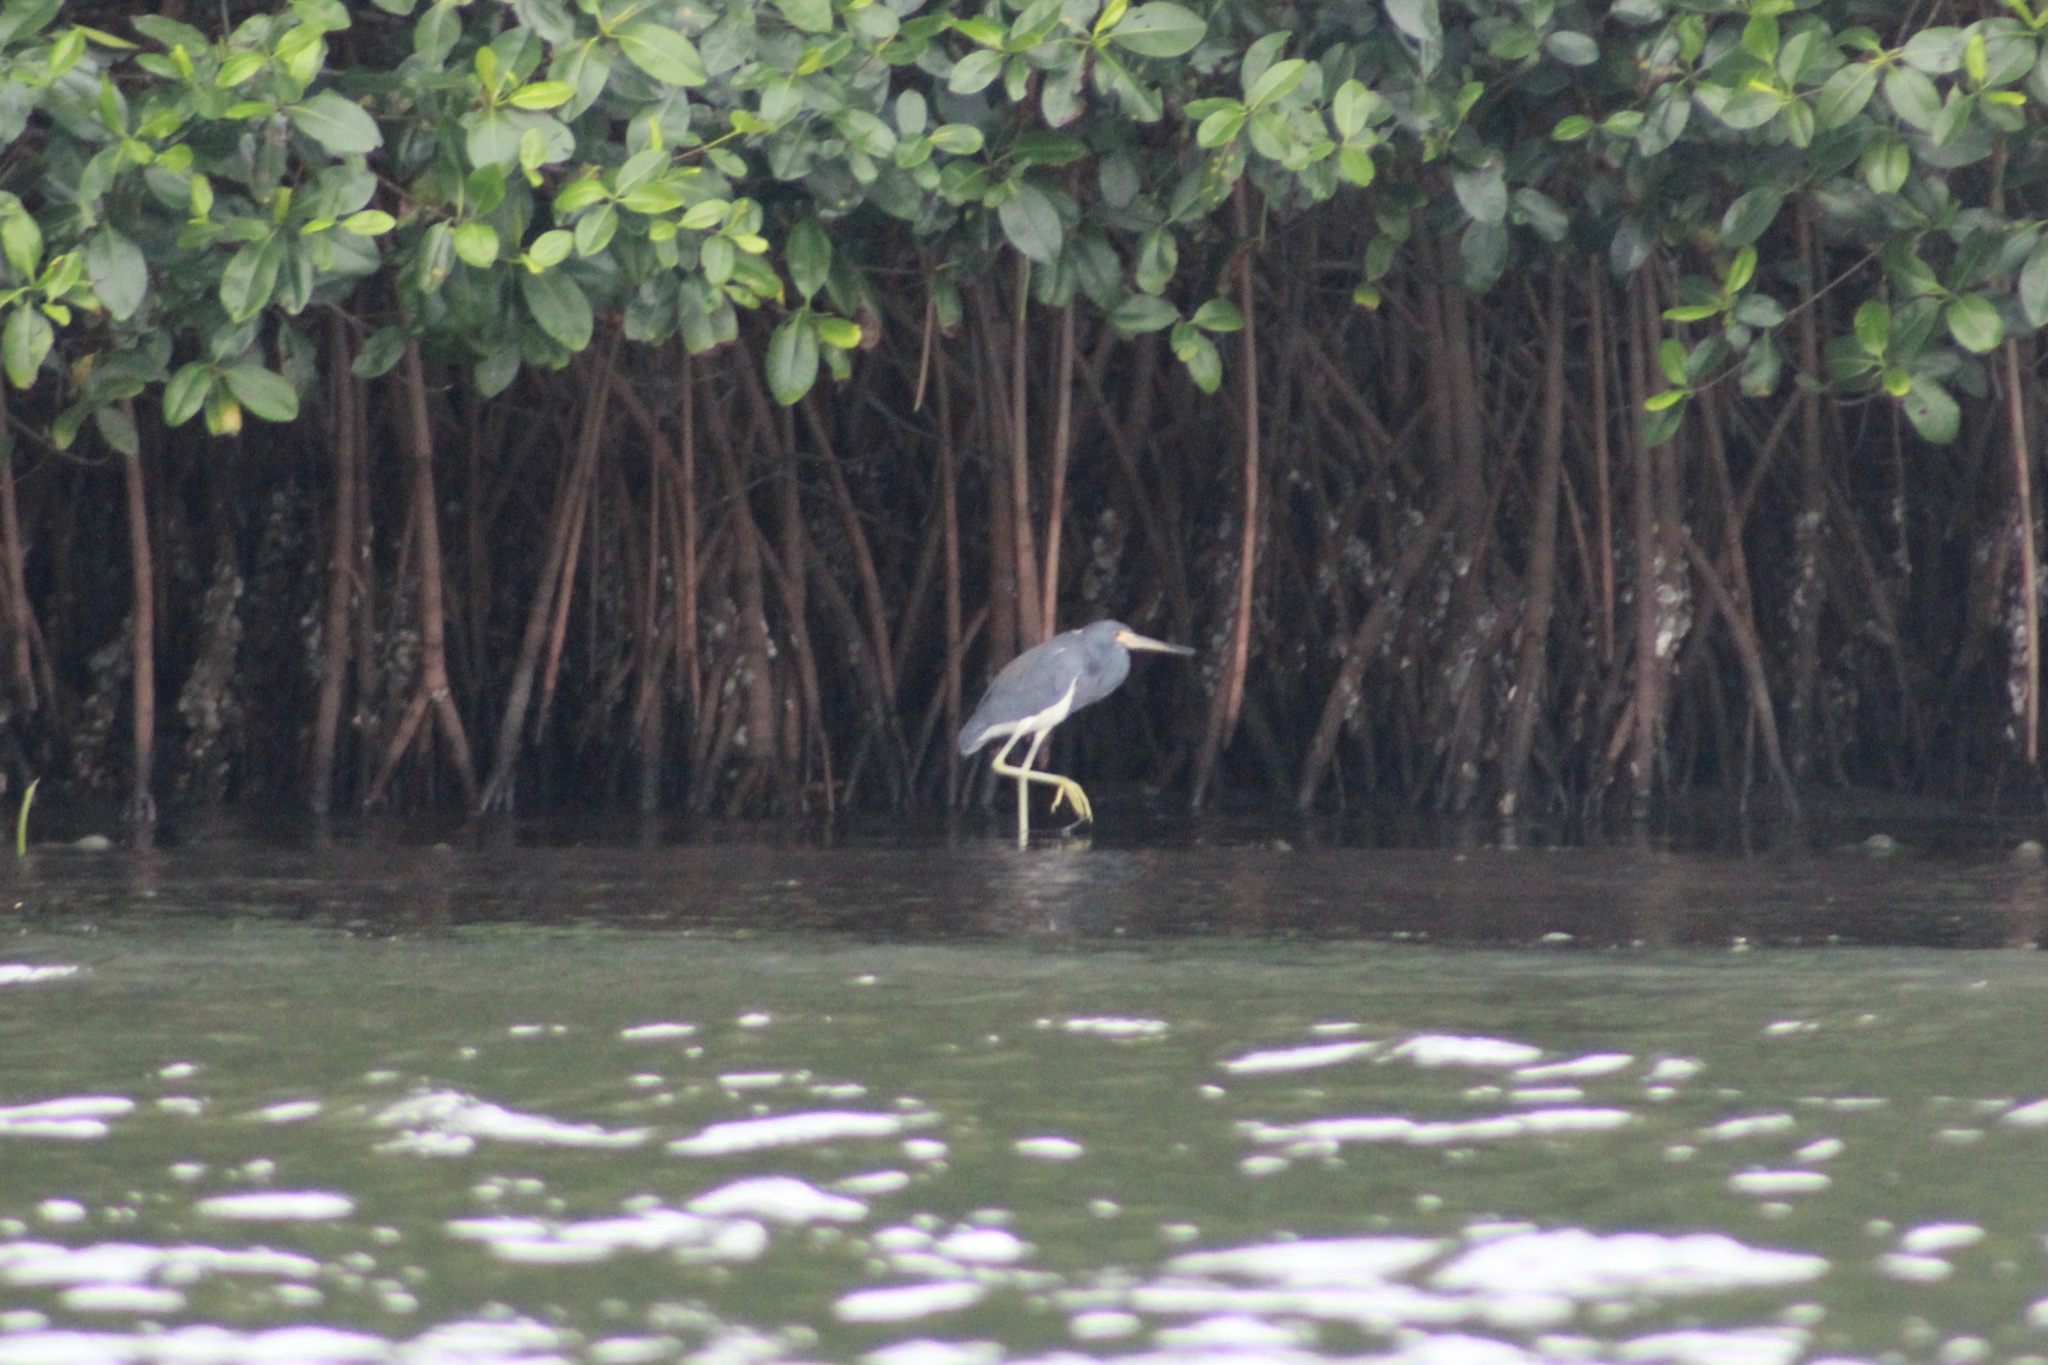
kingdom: Animalia
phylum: Chordata
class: Aves
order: Pelecaniformes
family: Ardeidae
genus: Egretta
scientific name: Egretta tricolor
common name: Tricolored heron
